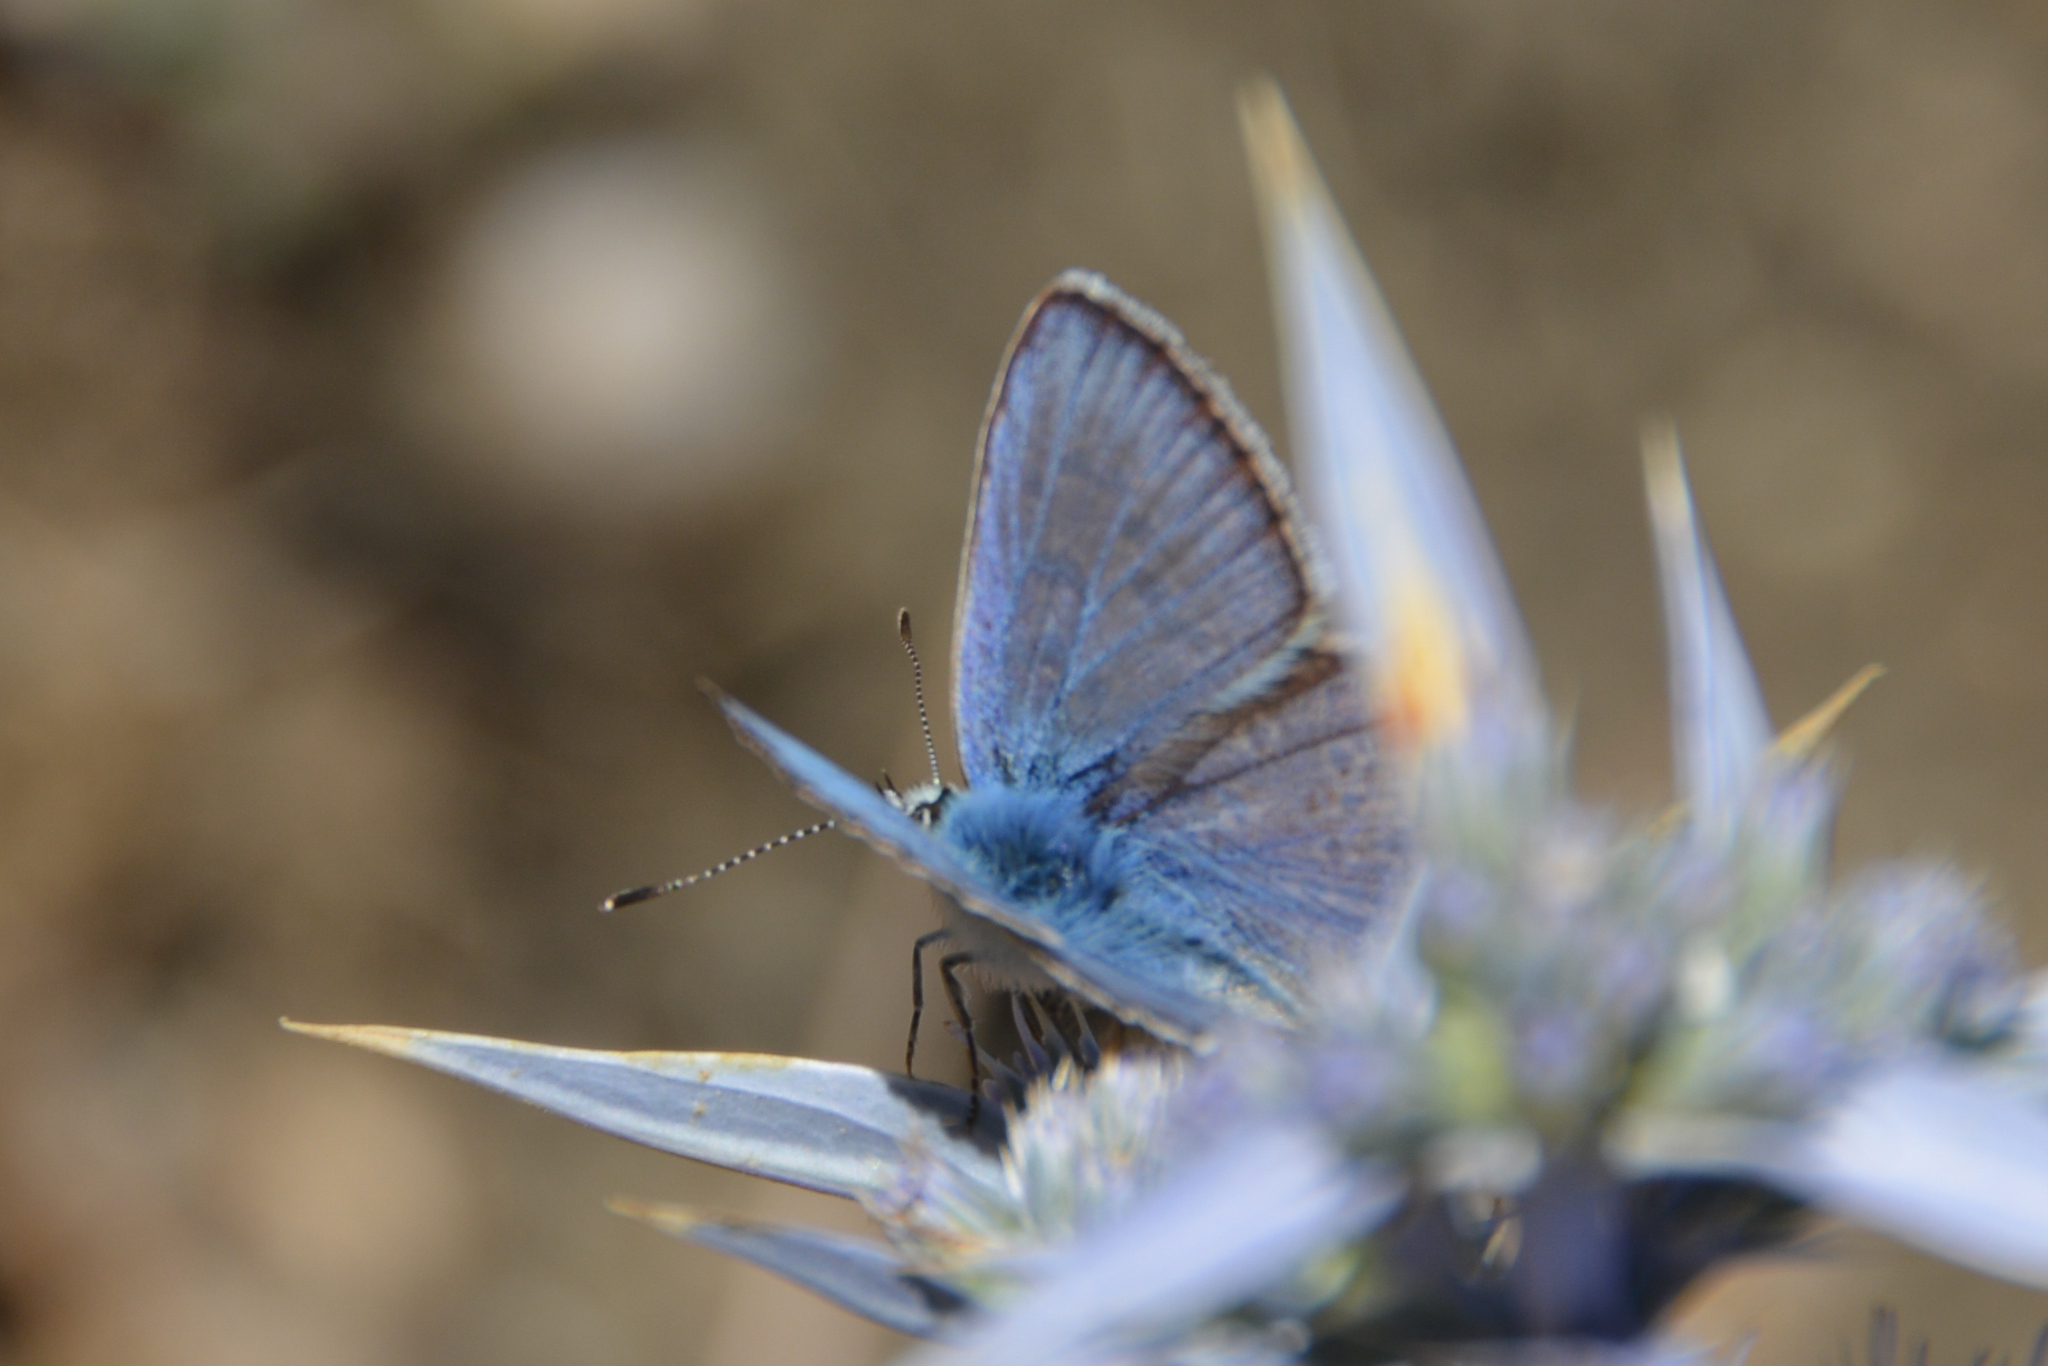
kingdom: Animalia
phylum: Arthropoda
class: Insecta
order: Lepidoptera
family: Lycaenidae
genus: Polyommatus
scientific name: Polyommatus celina
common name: Austaut's blue
